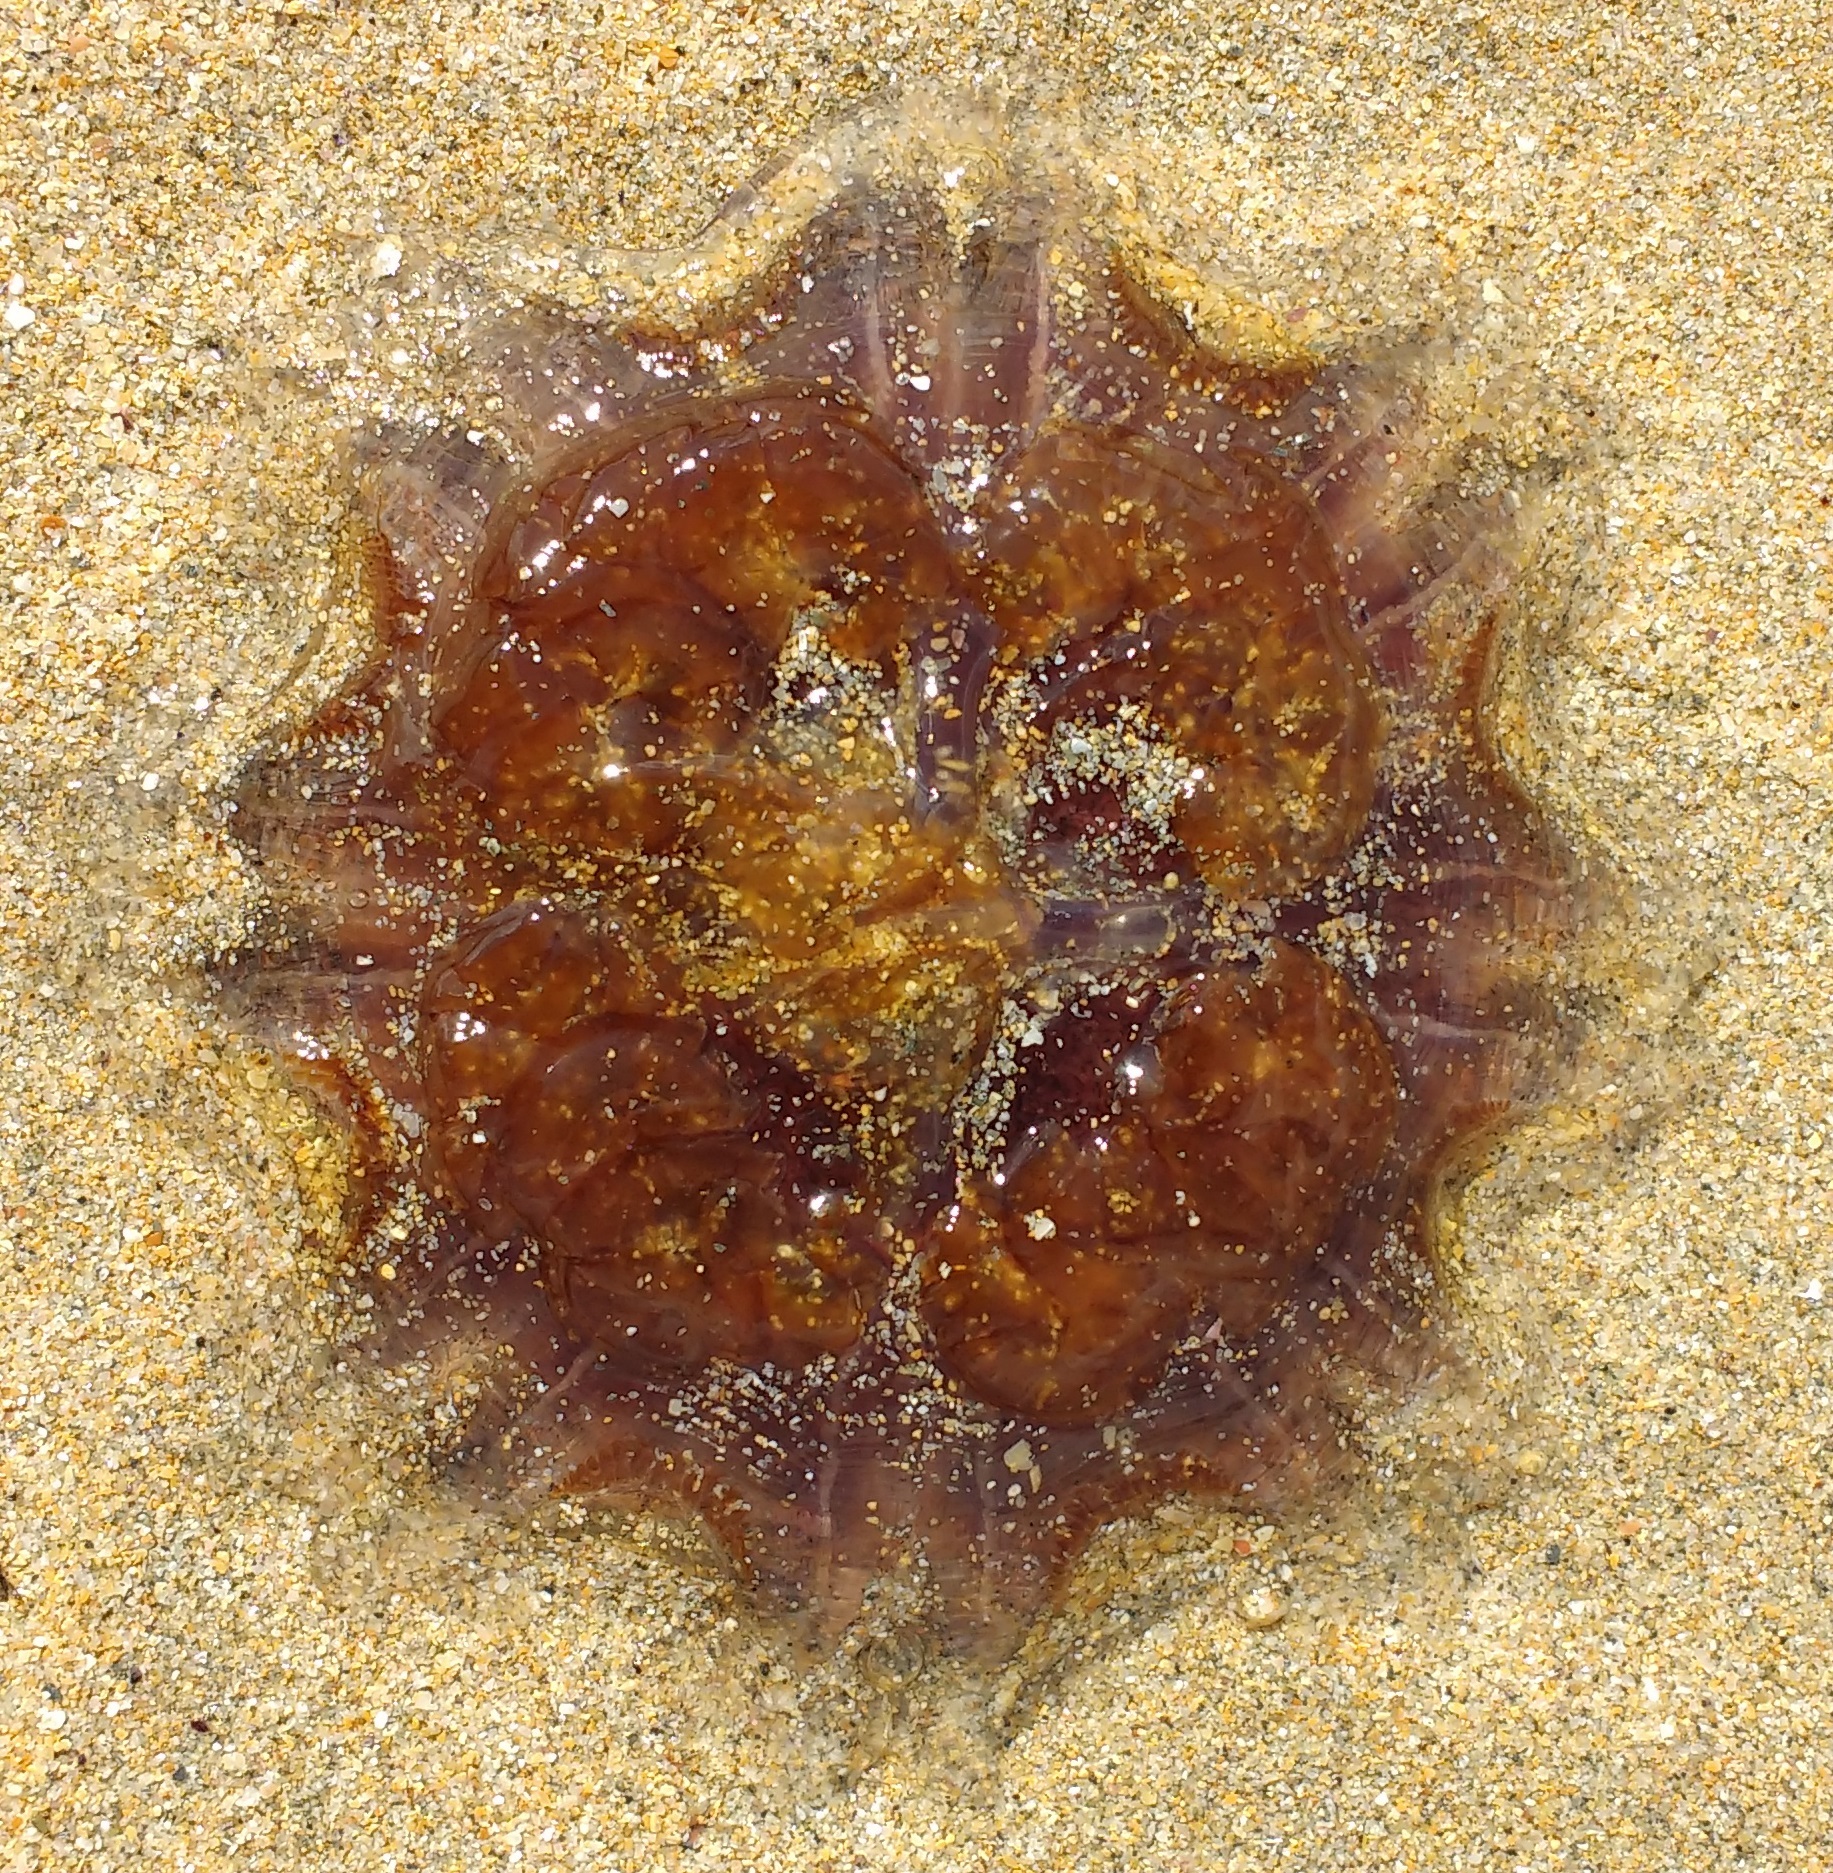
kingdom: Animalia
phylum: Cnidaria
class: Scyphozoa
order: Semaeostomeae
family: Cyaneidae
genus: Cyanea
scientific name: Cyanea capillata
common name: Lion's mane jellyfish
